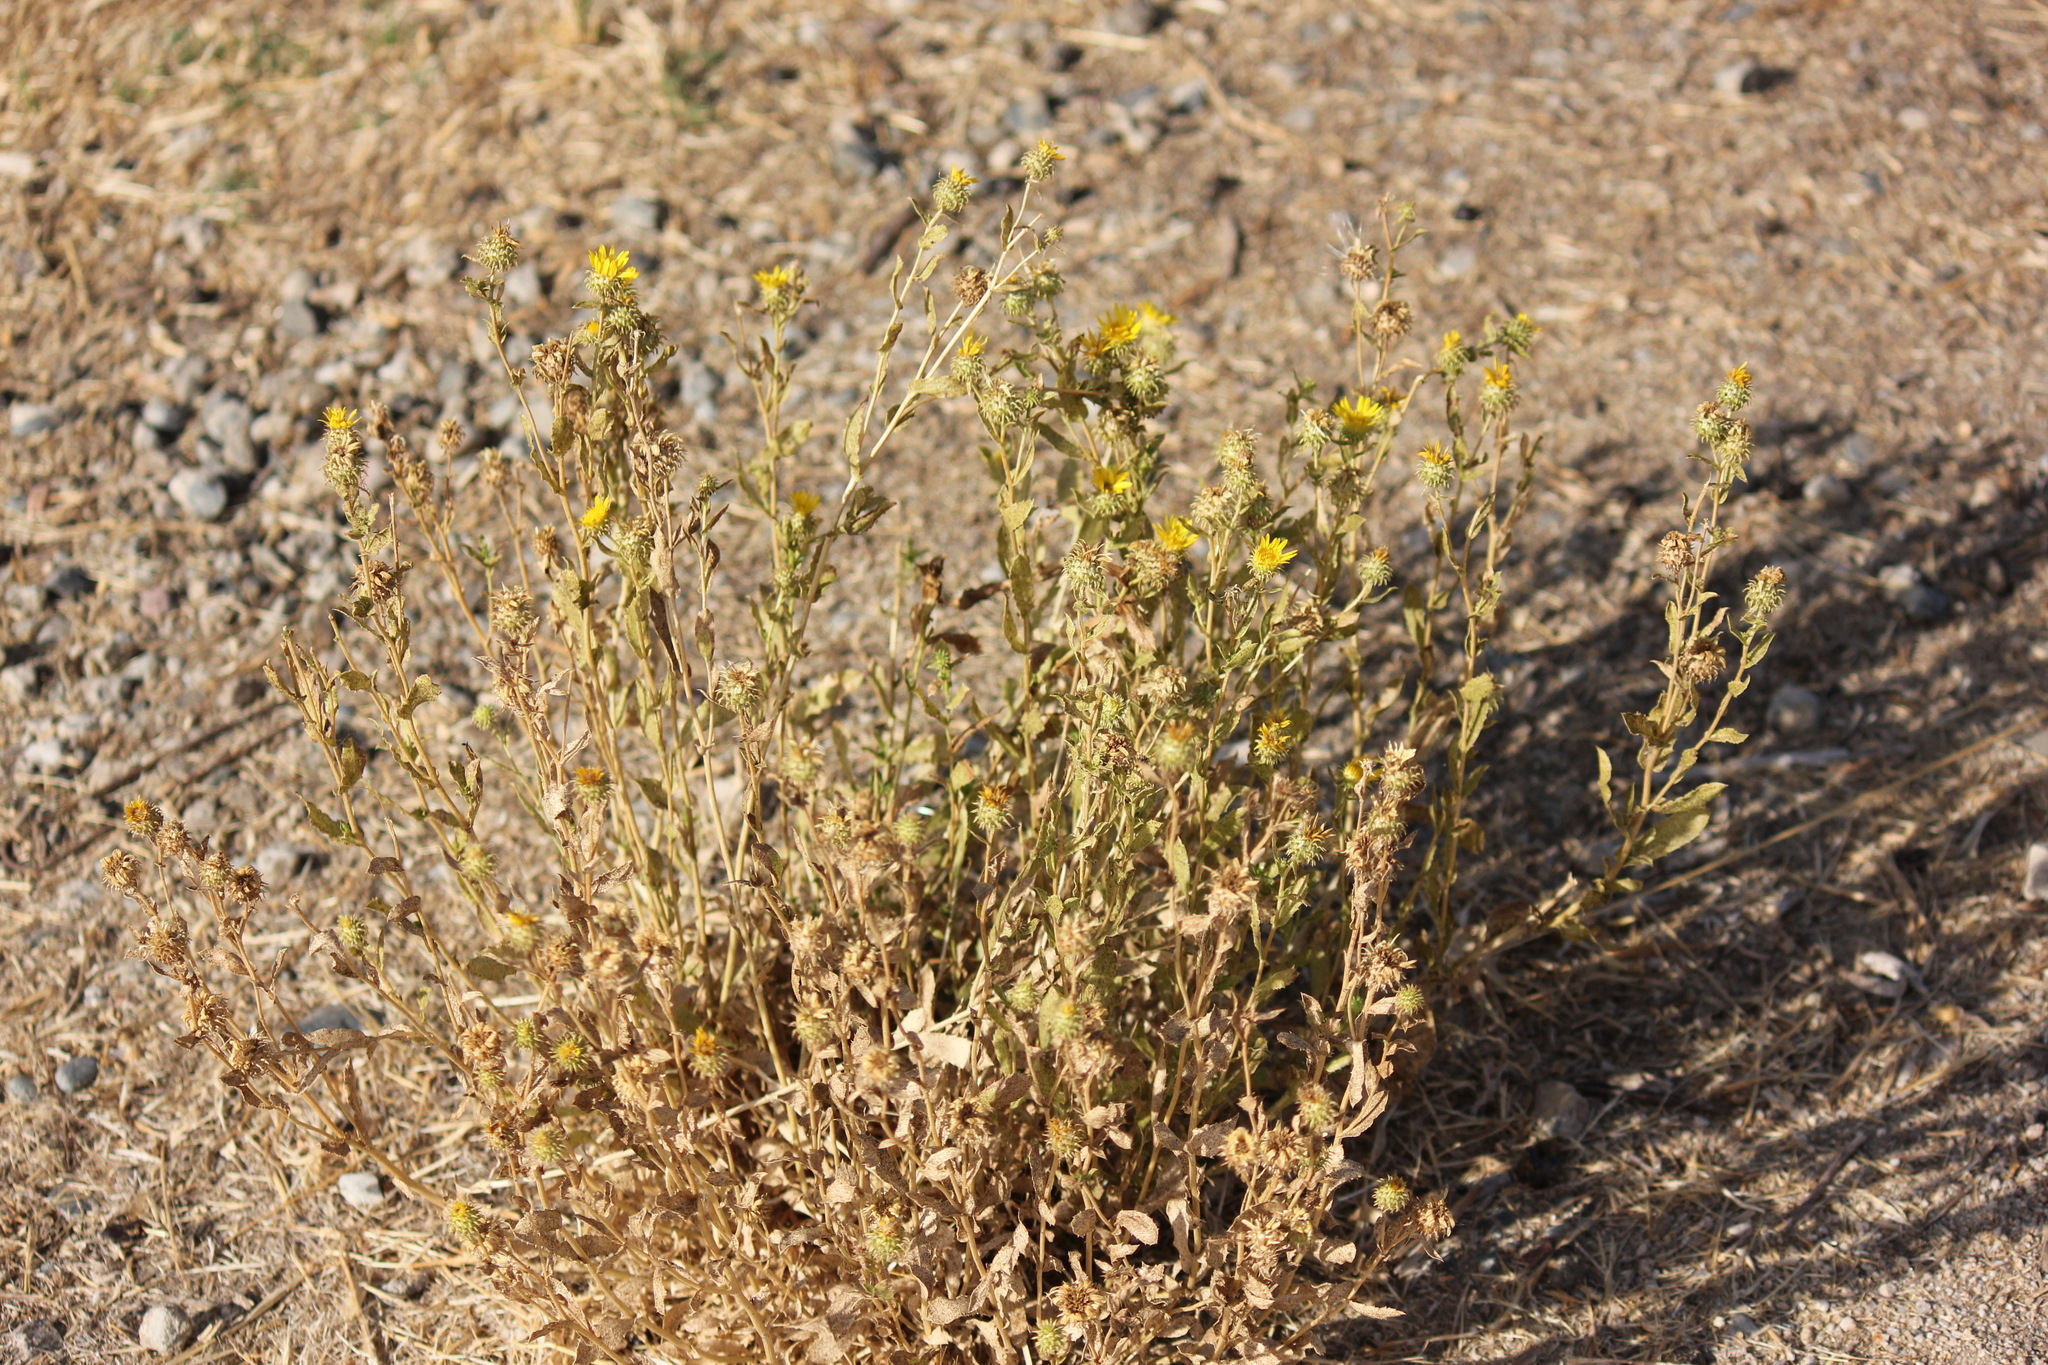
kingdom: Plantae
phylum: Tracheophyta
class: Magnoliopsida
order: Asterales
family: Asteraceae
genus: Grindelia
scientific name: Grindelia hirsutula
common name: Hairy gumweed
